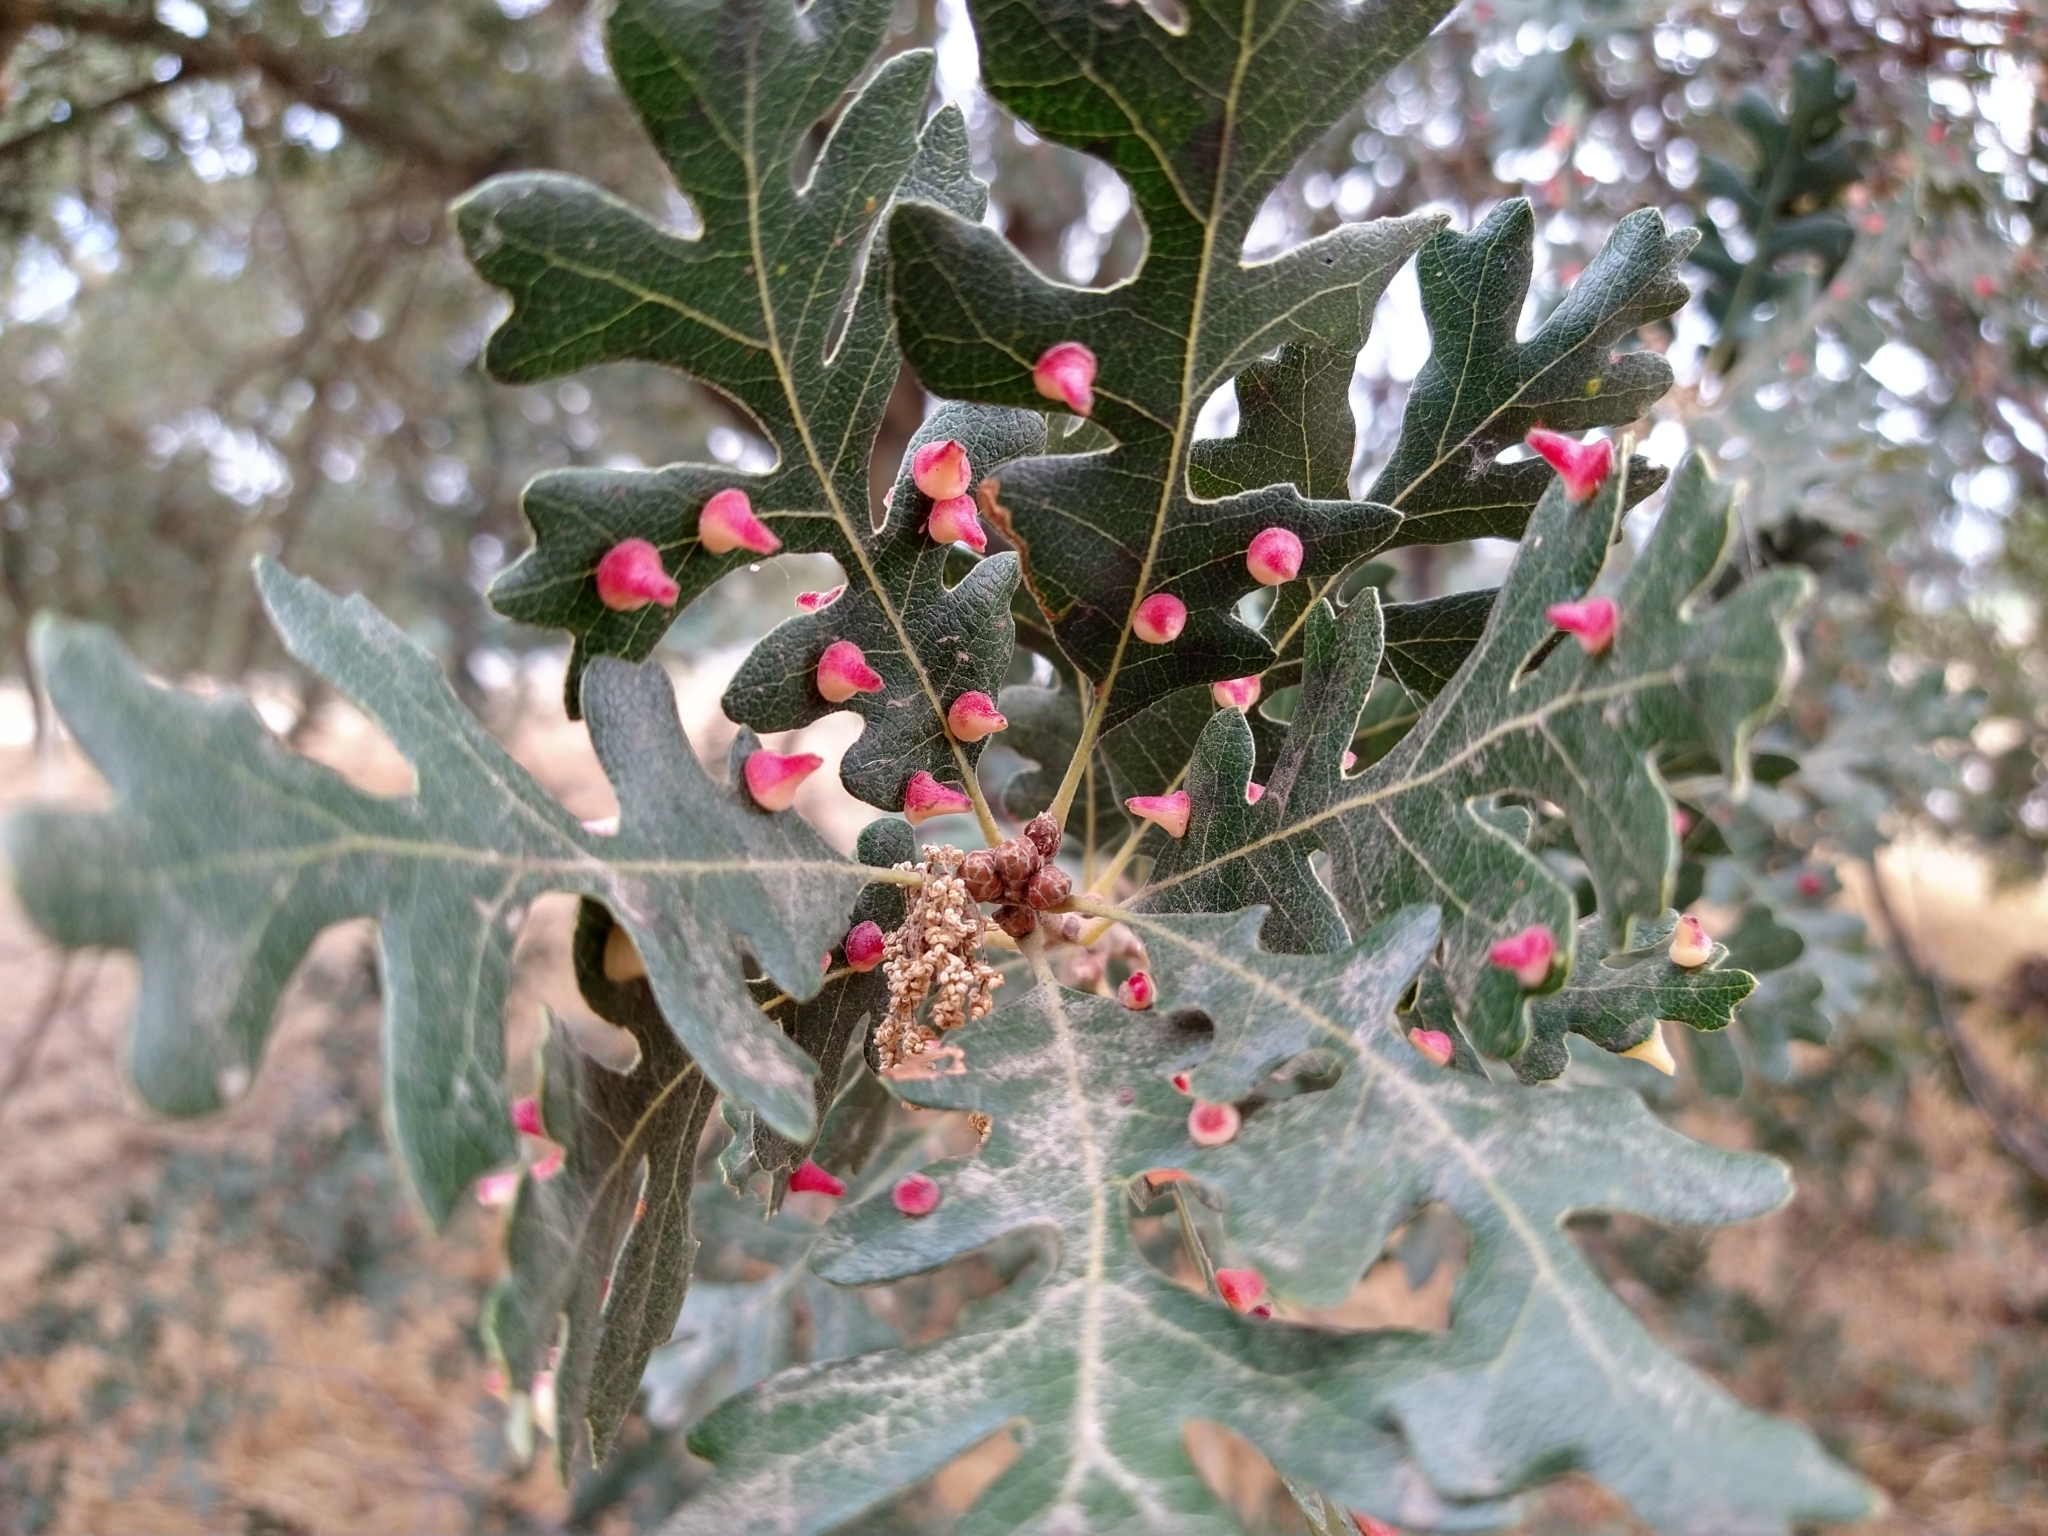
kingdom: Animalia
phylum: Arthropoda
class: Insecta
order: Hymenoptera
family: Cynipidae
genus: Andricus
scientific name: Andricus
